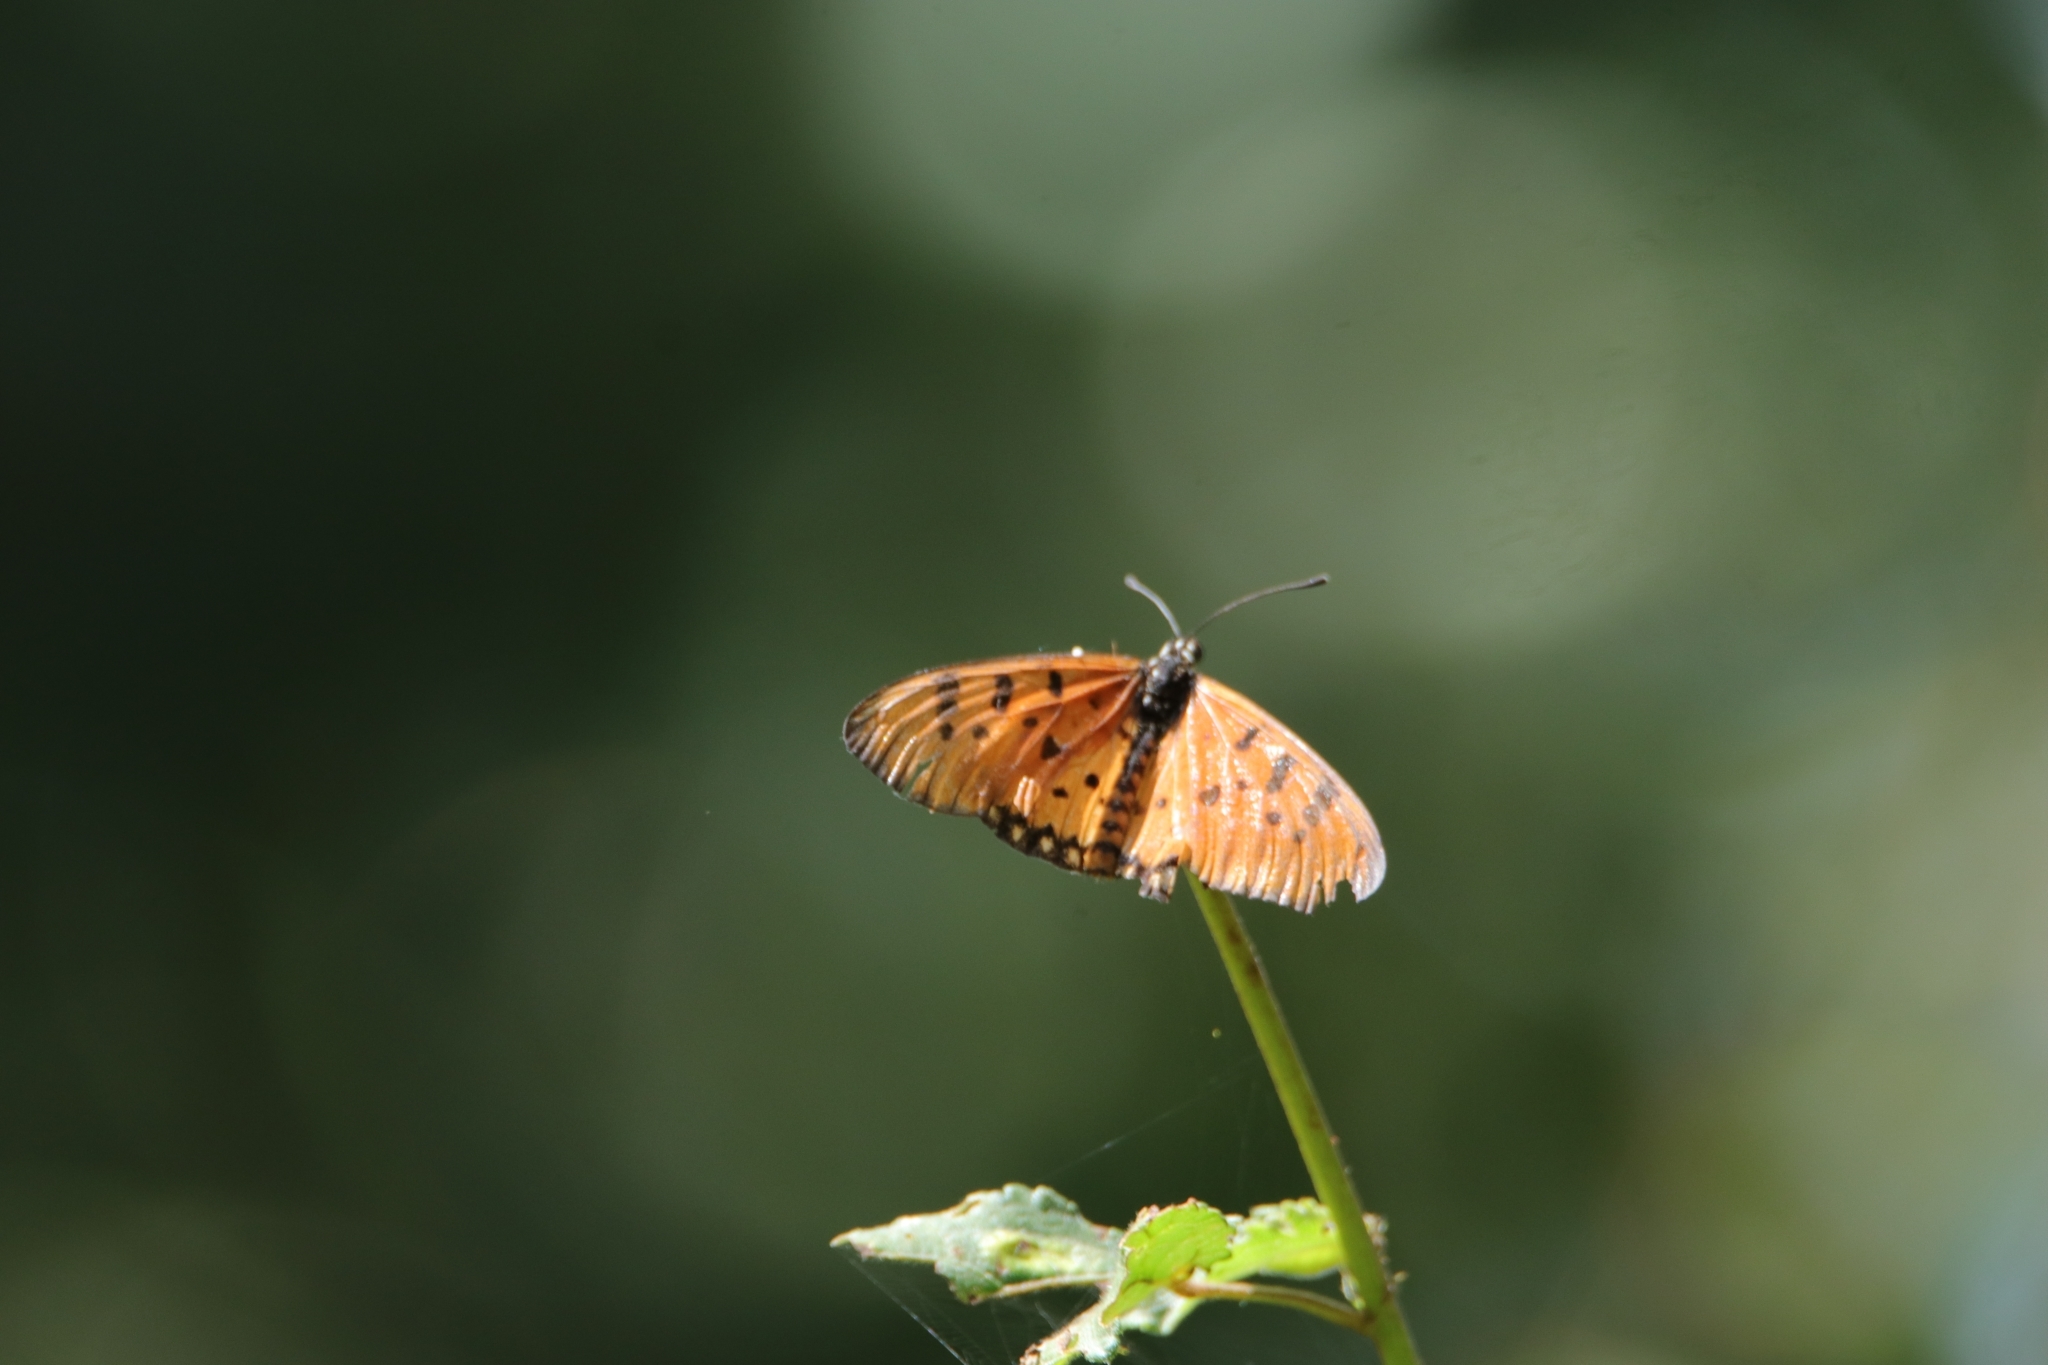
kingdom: Animalia
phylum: Arthropoda
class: Insecta
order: Lepidoptera
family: Nymphalidae
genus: Acraea
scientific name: Acraea terpsicore
